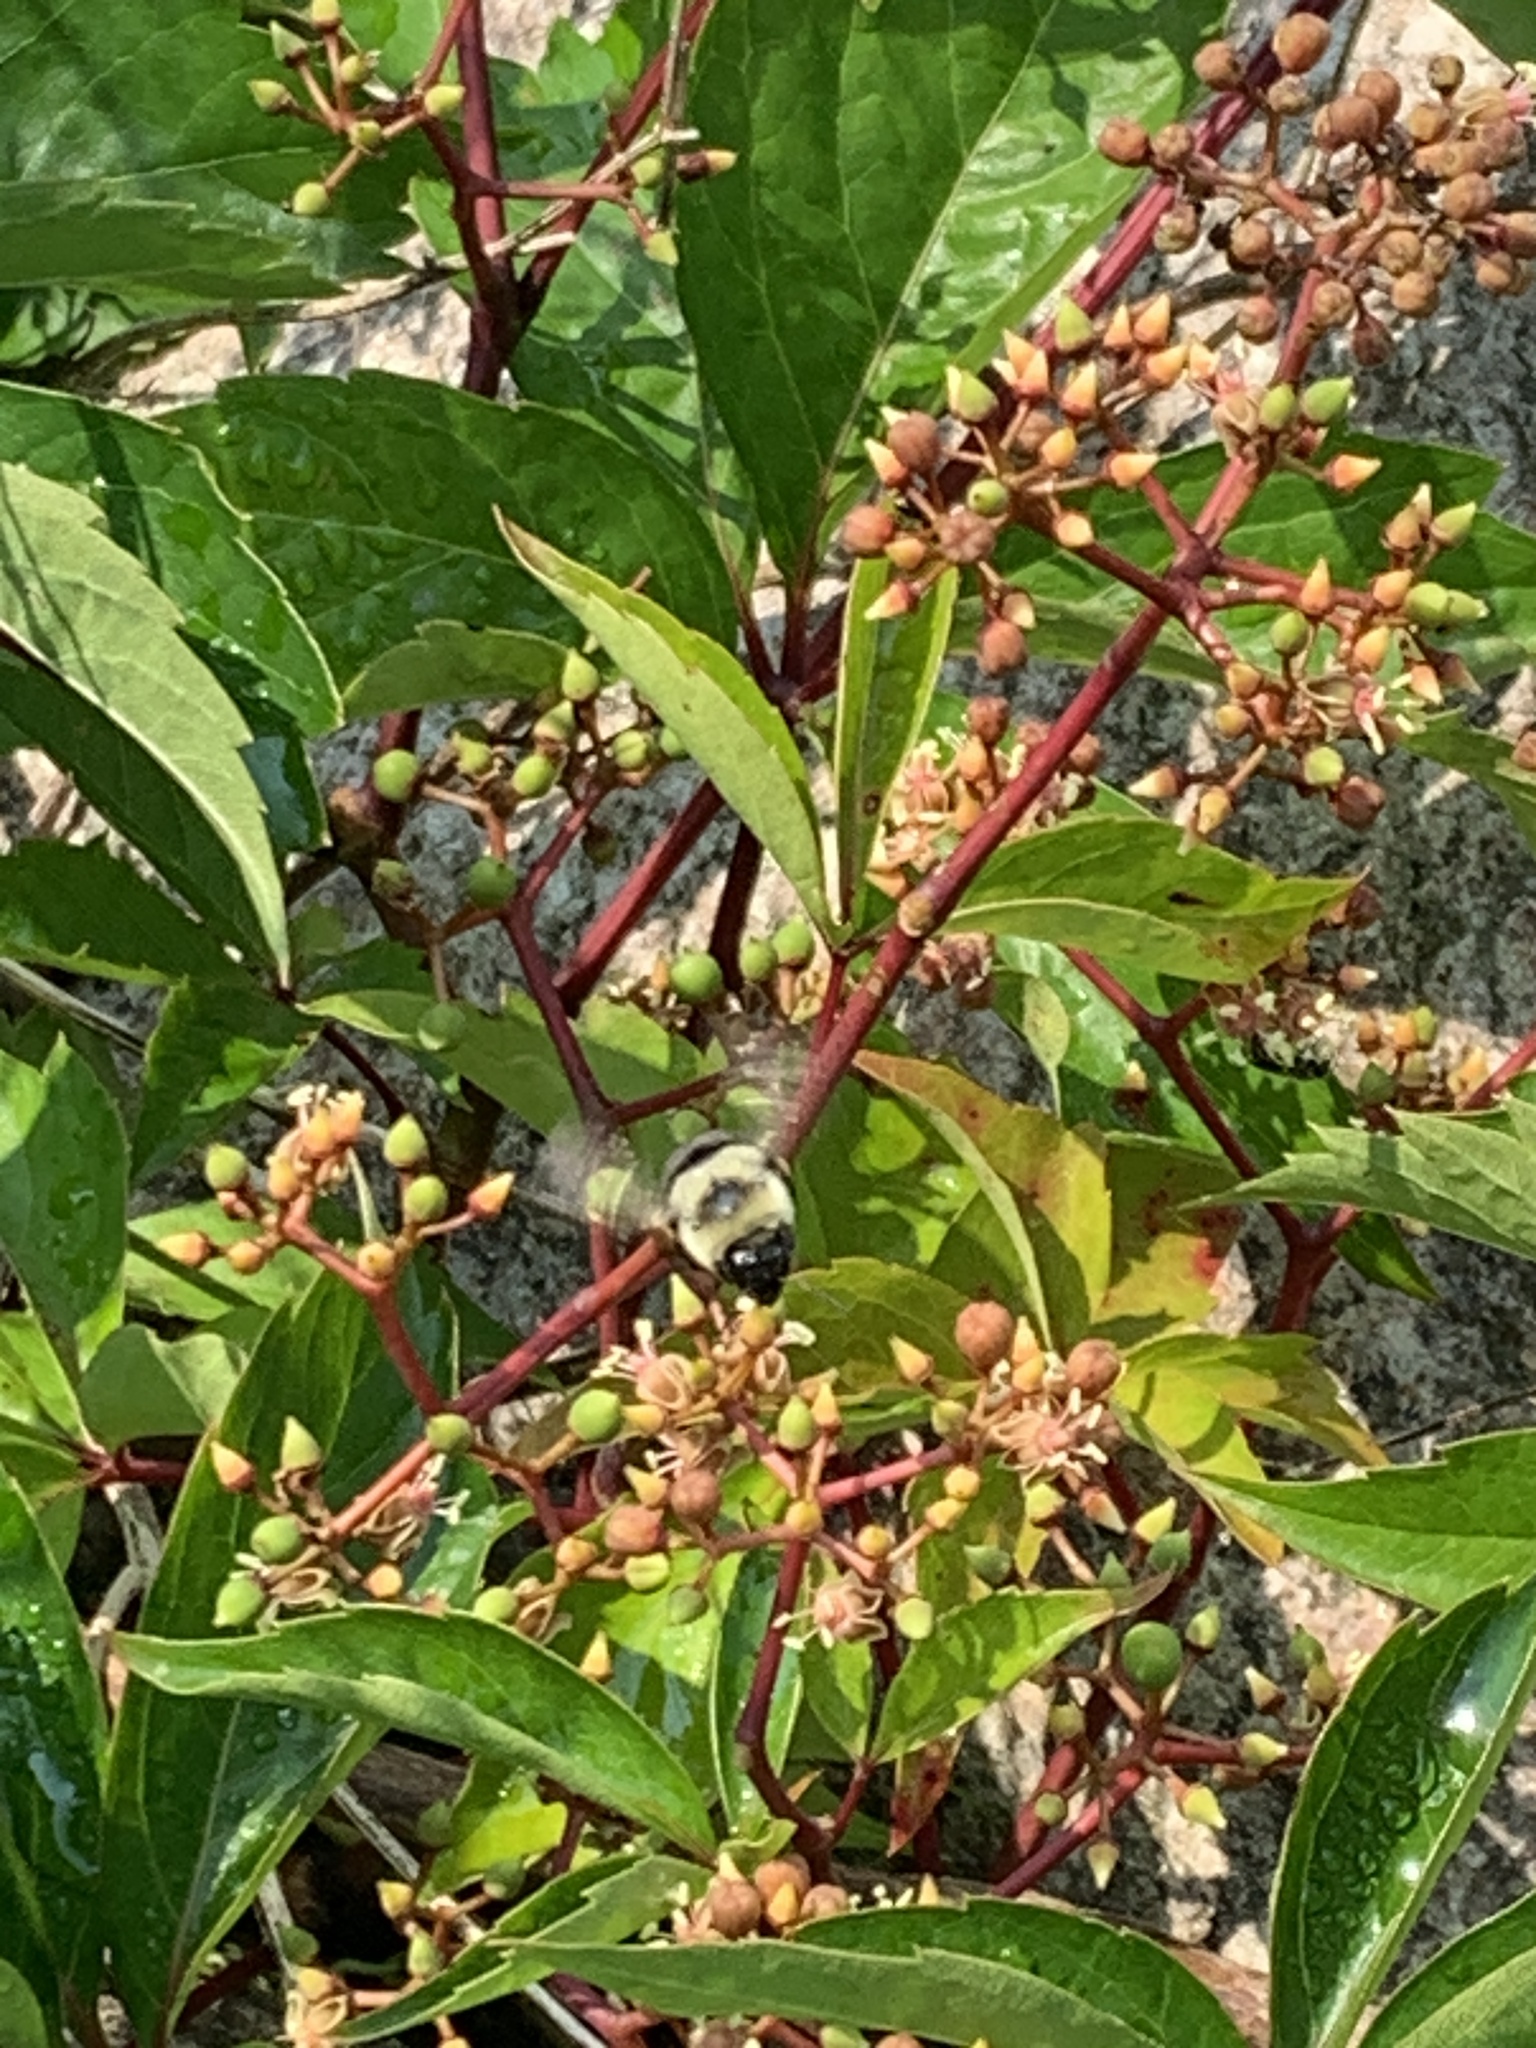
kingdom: Animalia
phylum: Arthropoda
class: Insecta
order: Hymenoptera
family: Apidae
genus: Bombus
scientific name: Bombus impatiens
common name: Common eastern bumble bee
